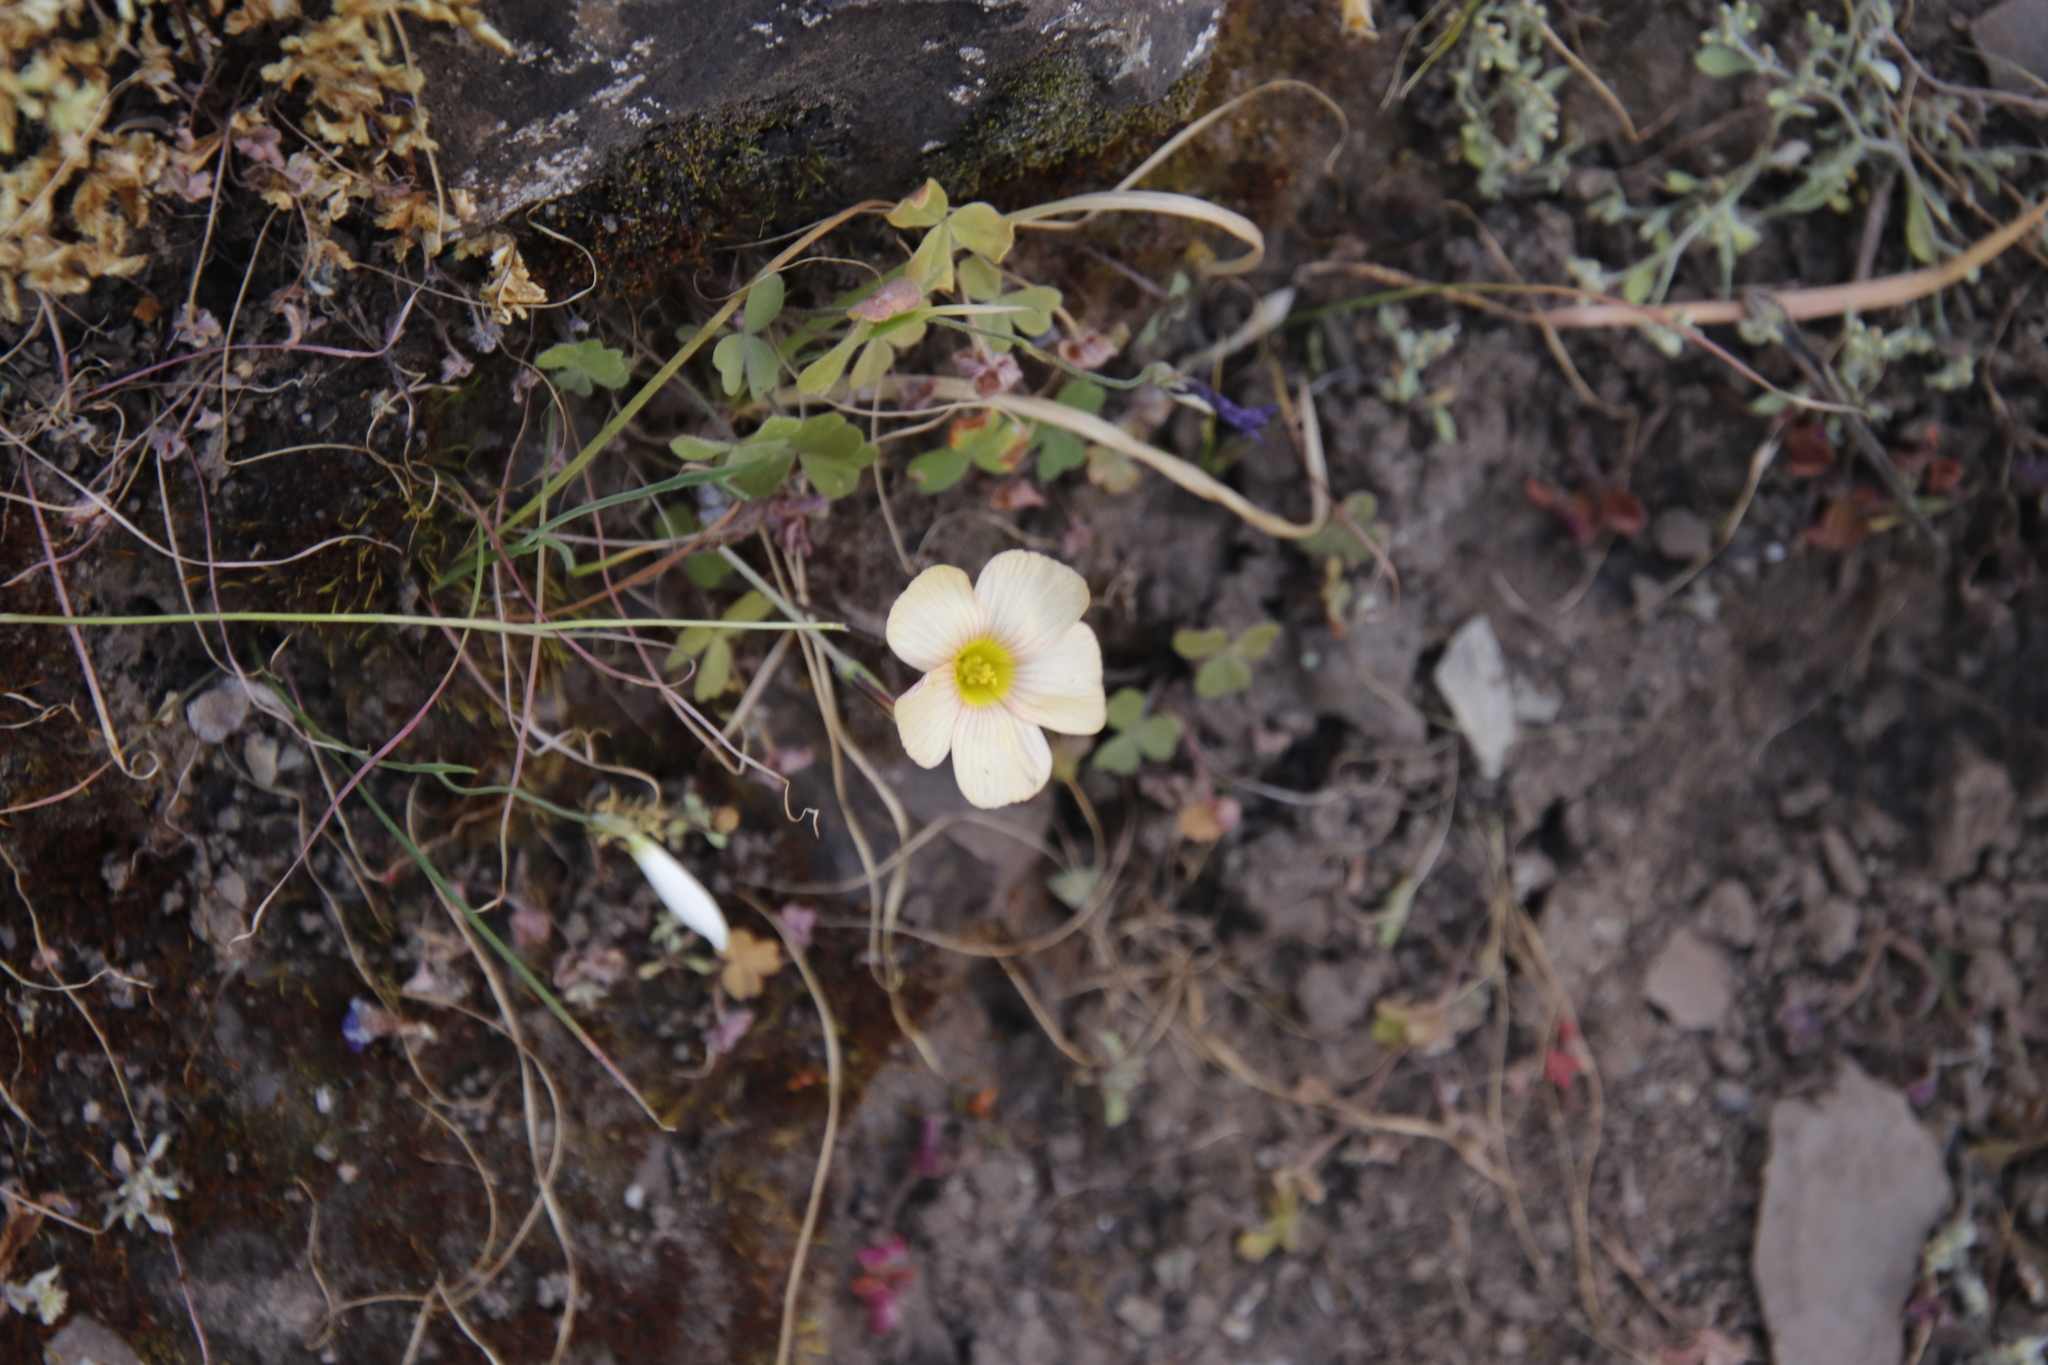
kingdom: Plantae
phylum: Tracheophyta
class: Magnoliopsida
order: Oxalidales
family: Oxalidaceae
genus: Oxalis
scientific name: Oxalis obtusa
